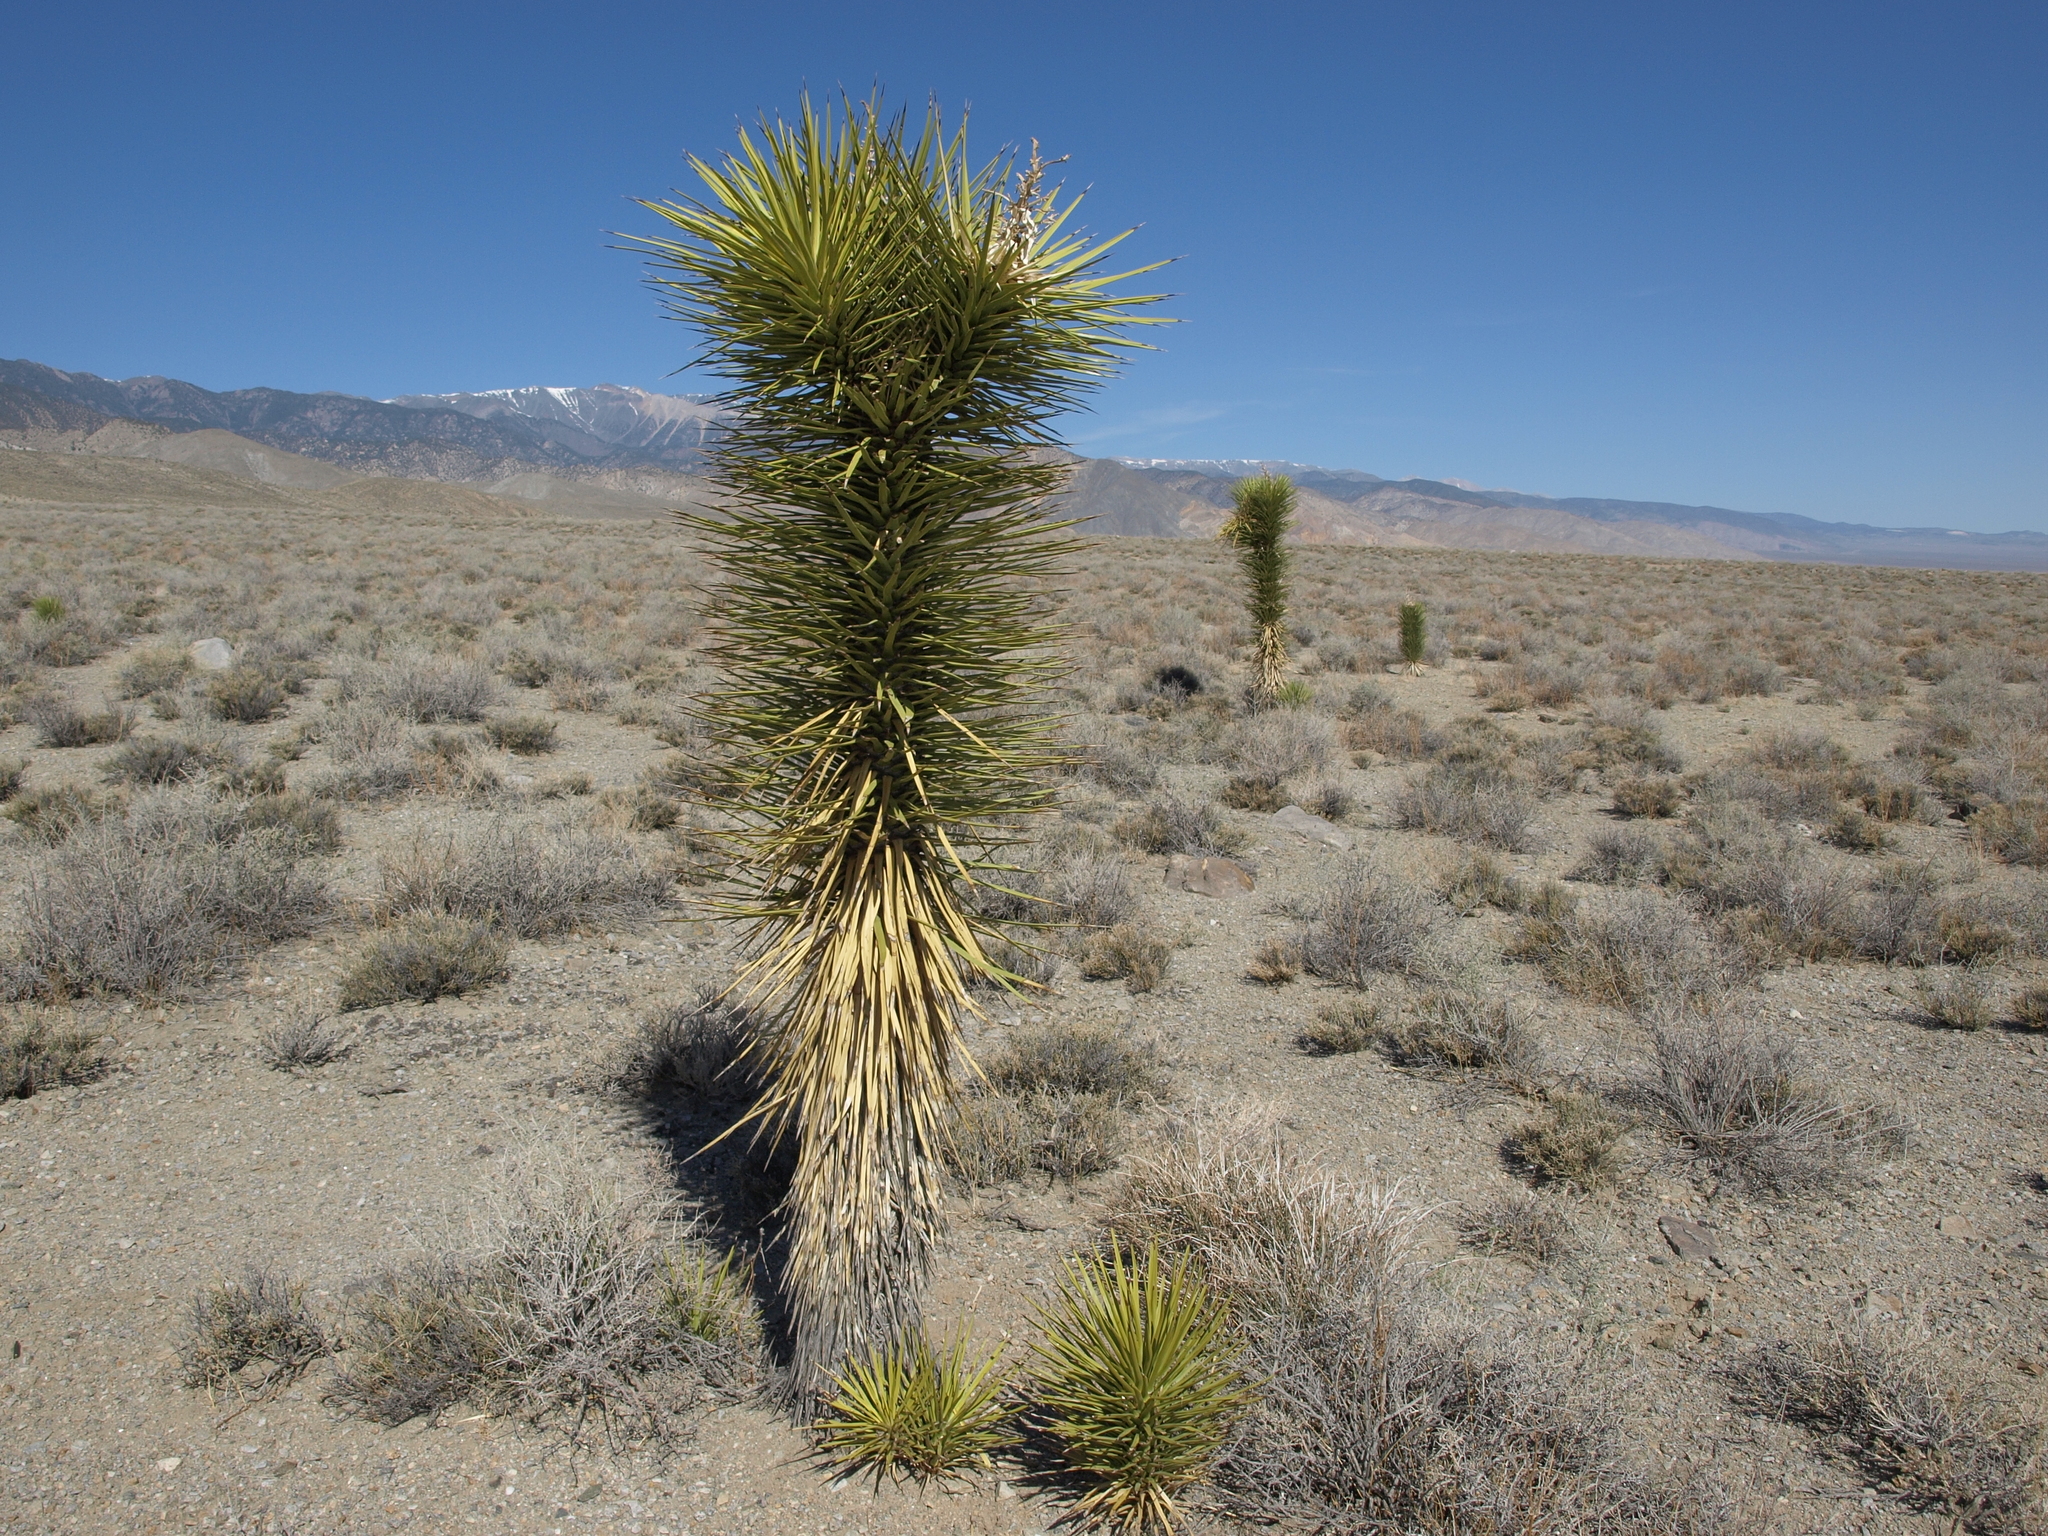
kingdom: Plantae
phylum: Tracheophyta
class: Liliopsida
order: Asparagales
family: Asparagaceae
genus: Yucca
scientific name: Yucca brevifolia
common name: Joshua tree
